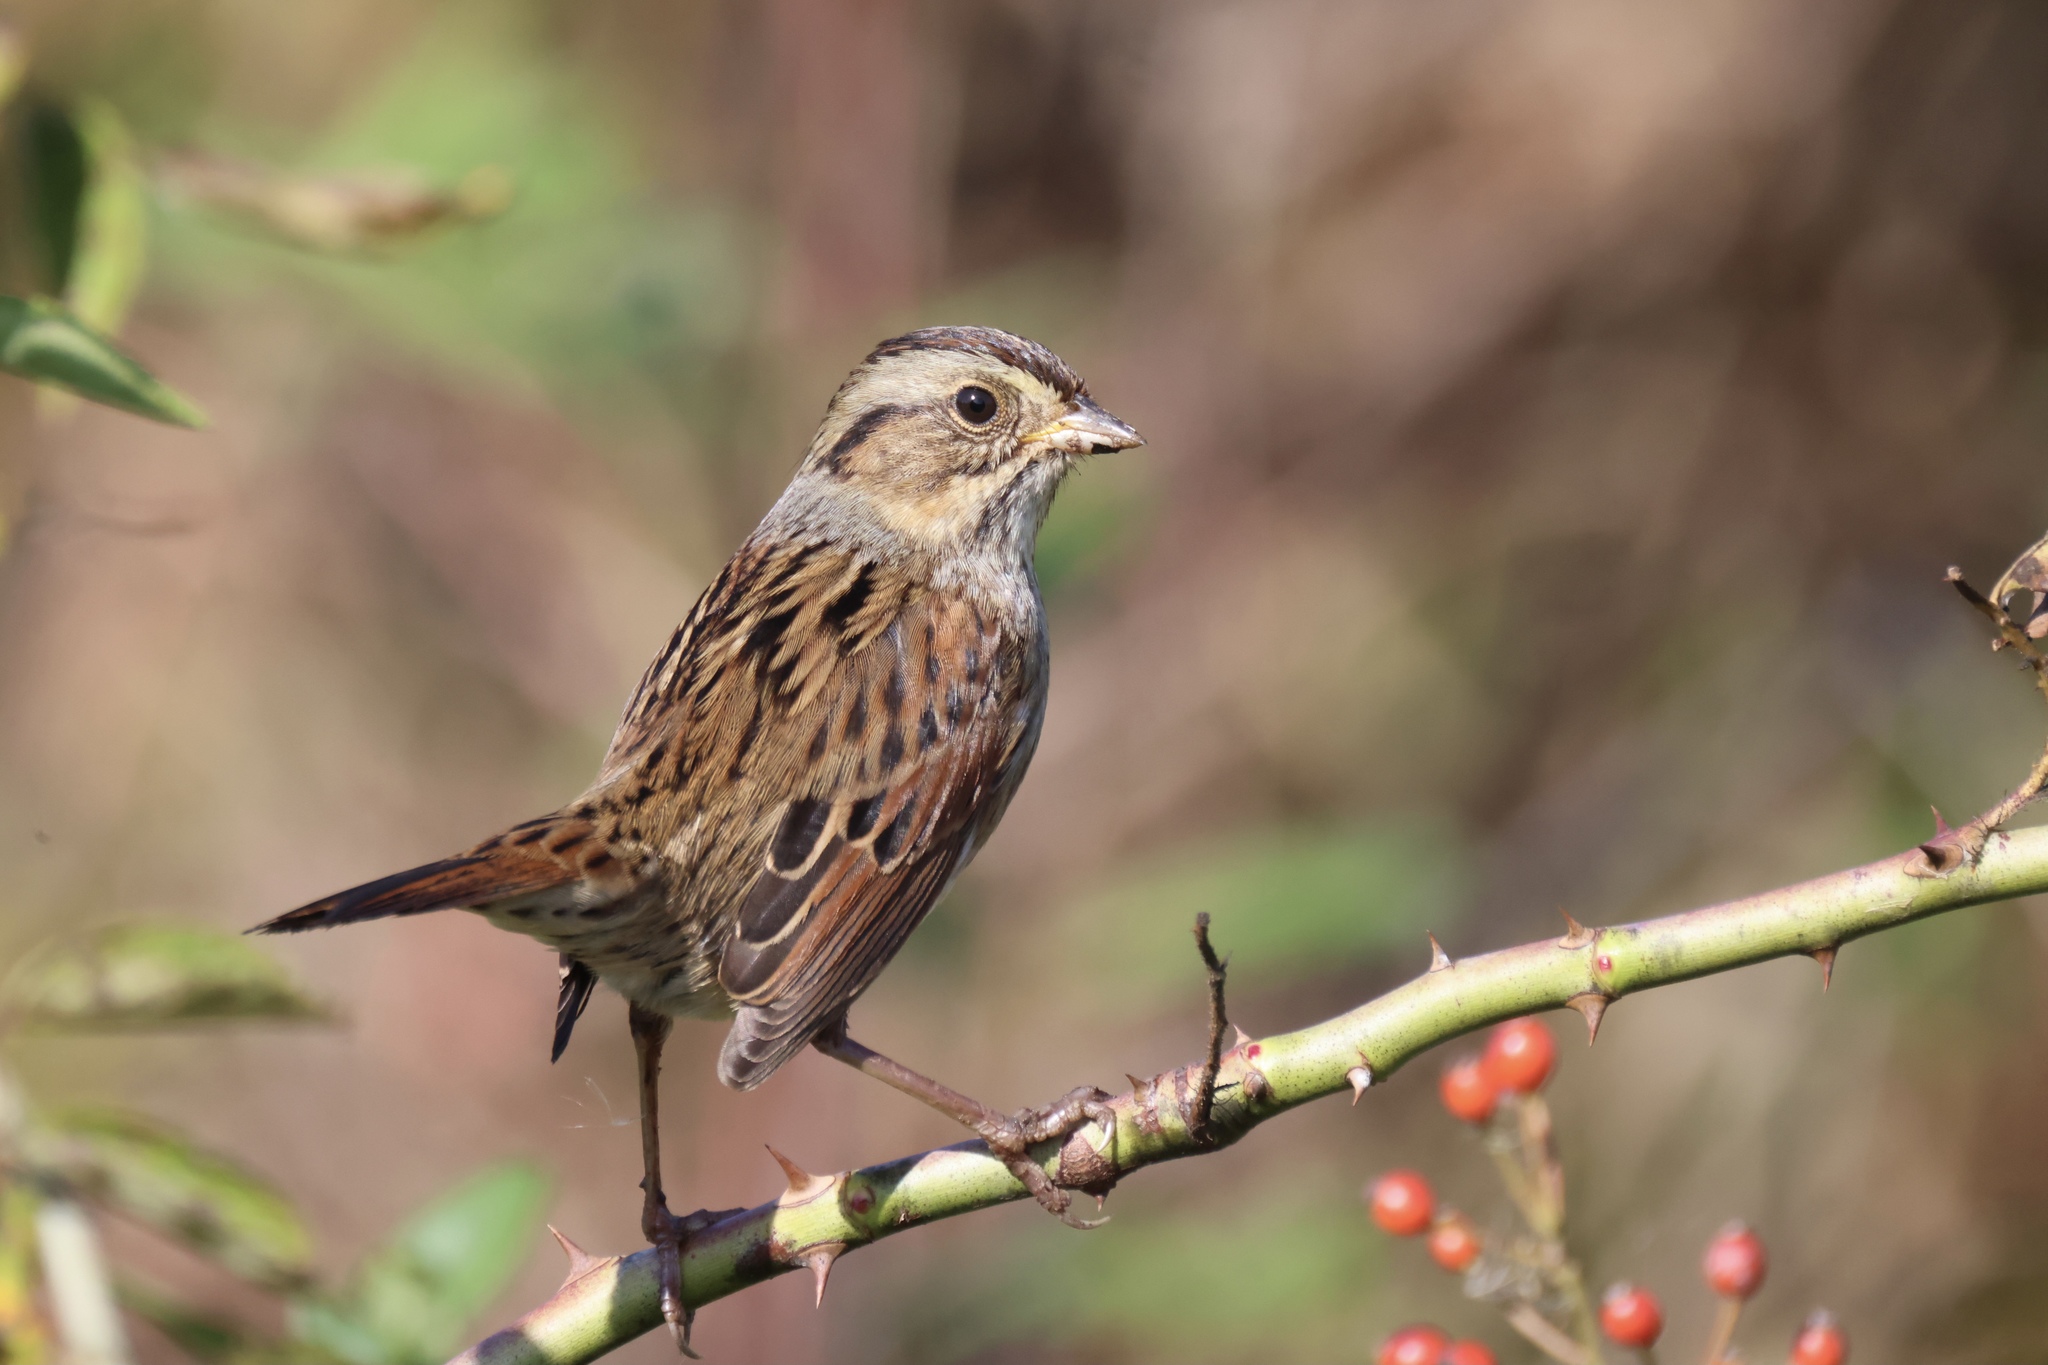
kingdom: Animalia
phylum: Chordata
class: Aves
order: Passeriformes
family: Passerellidae
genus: Melospiza
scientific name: Melospiza georgiana
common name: Swamp sparrow
